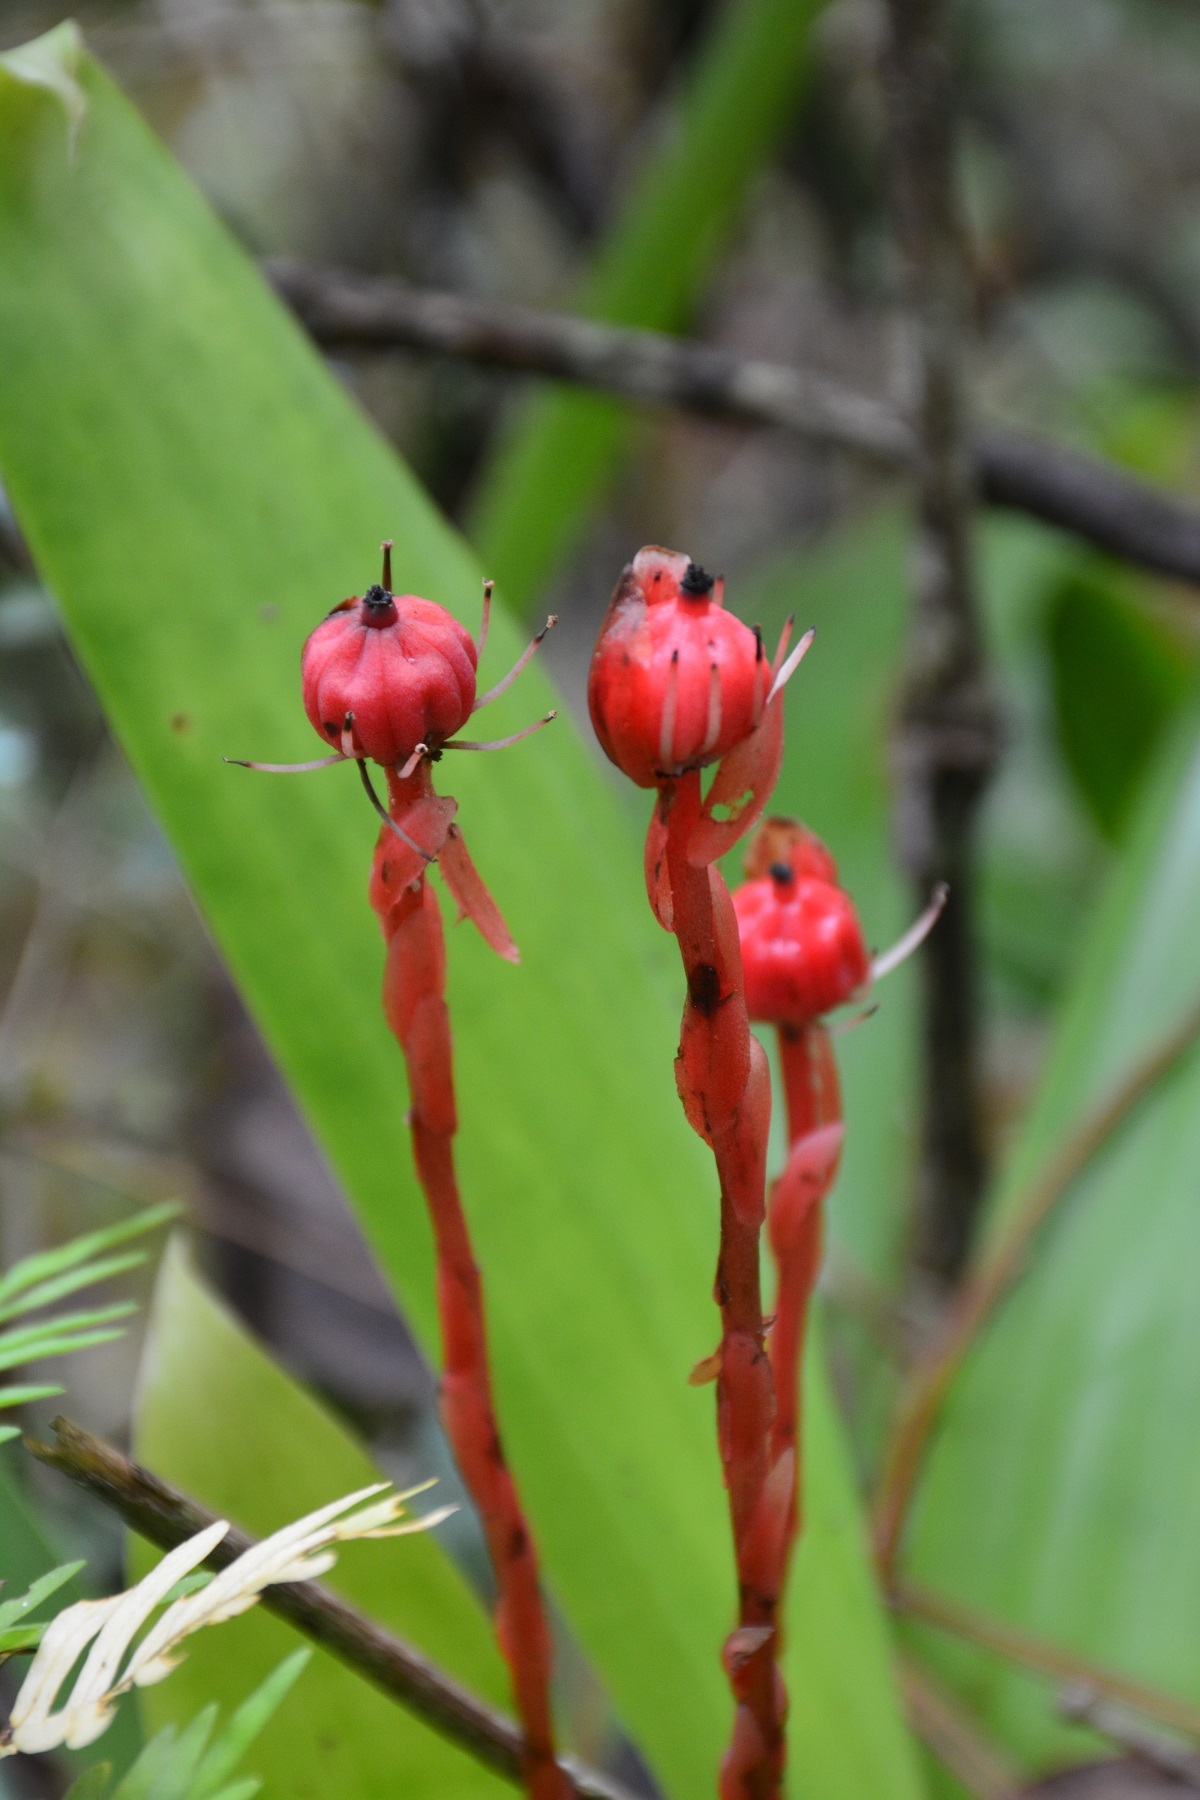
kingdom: Plantae
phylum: Tracheophyta
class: Magnoliopsida
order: Ericales
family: Ericaceae
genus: Monotropa
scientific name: Monotropa coccinea
